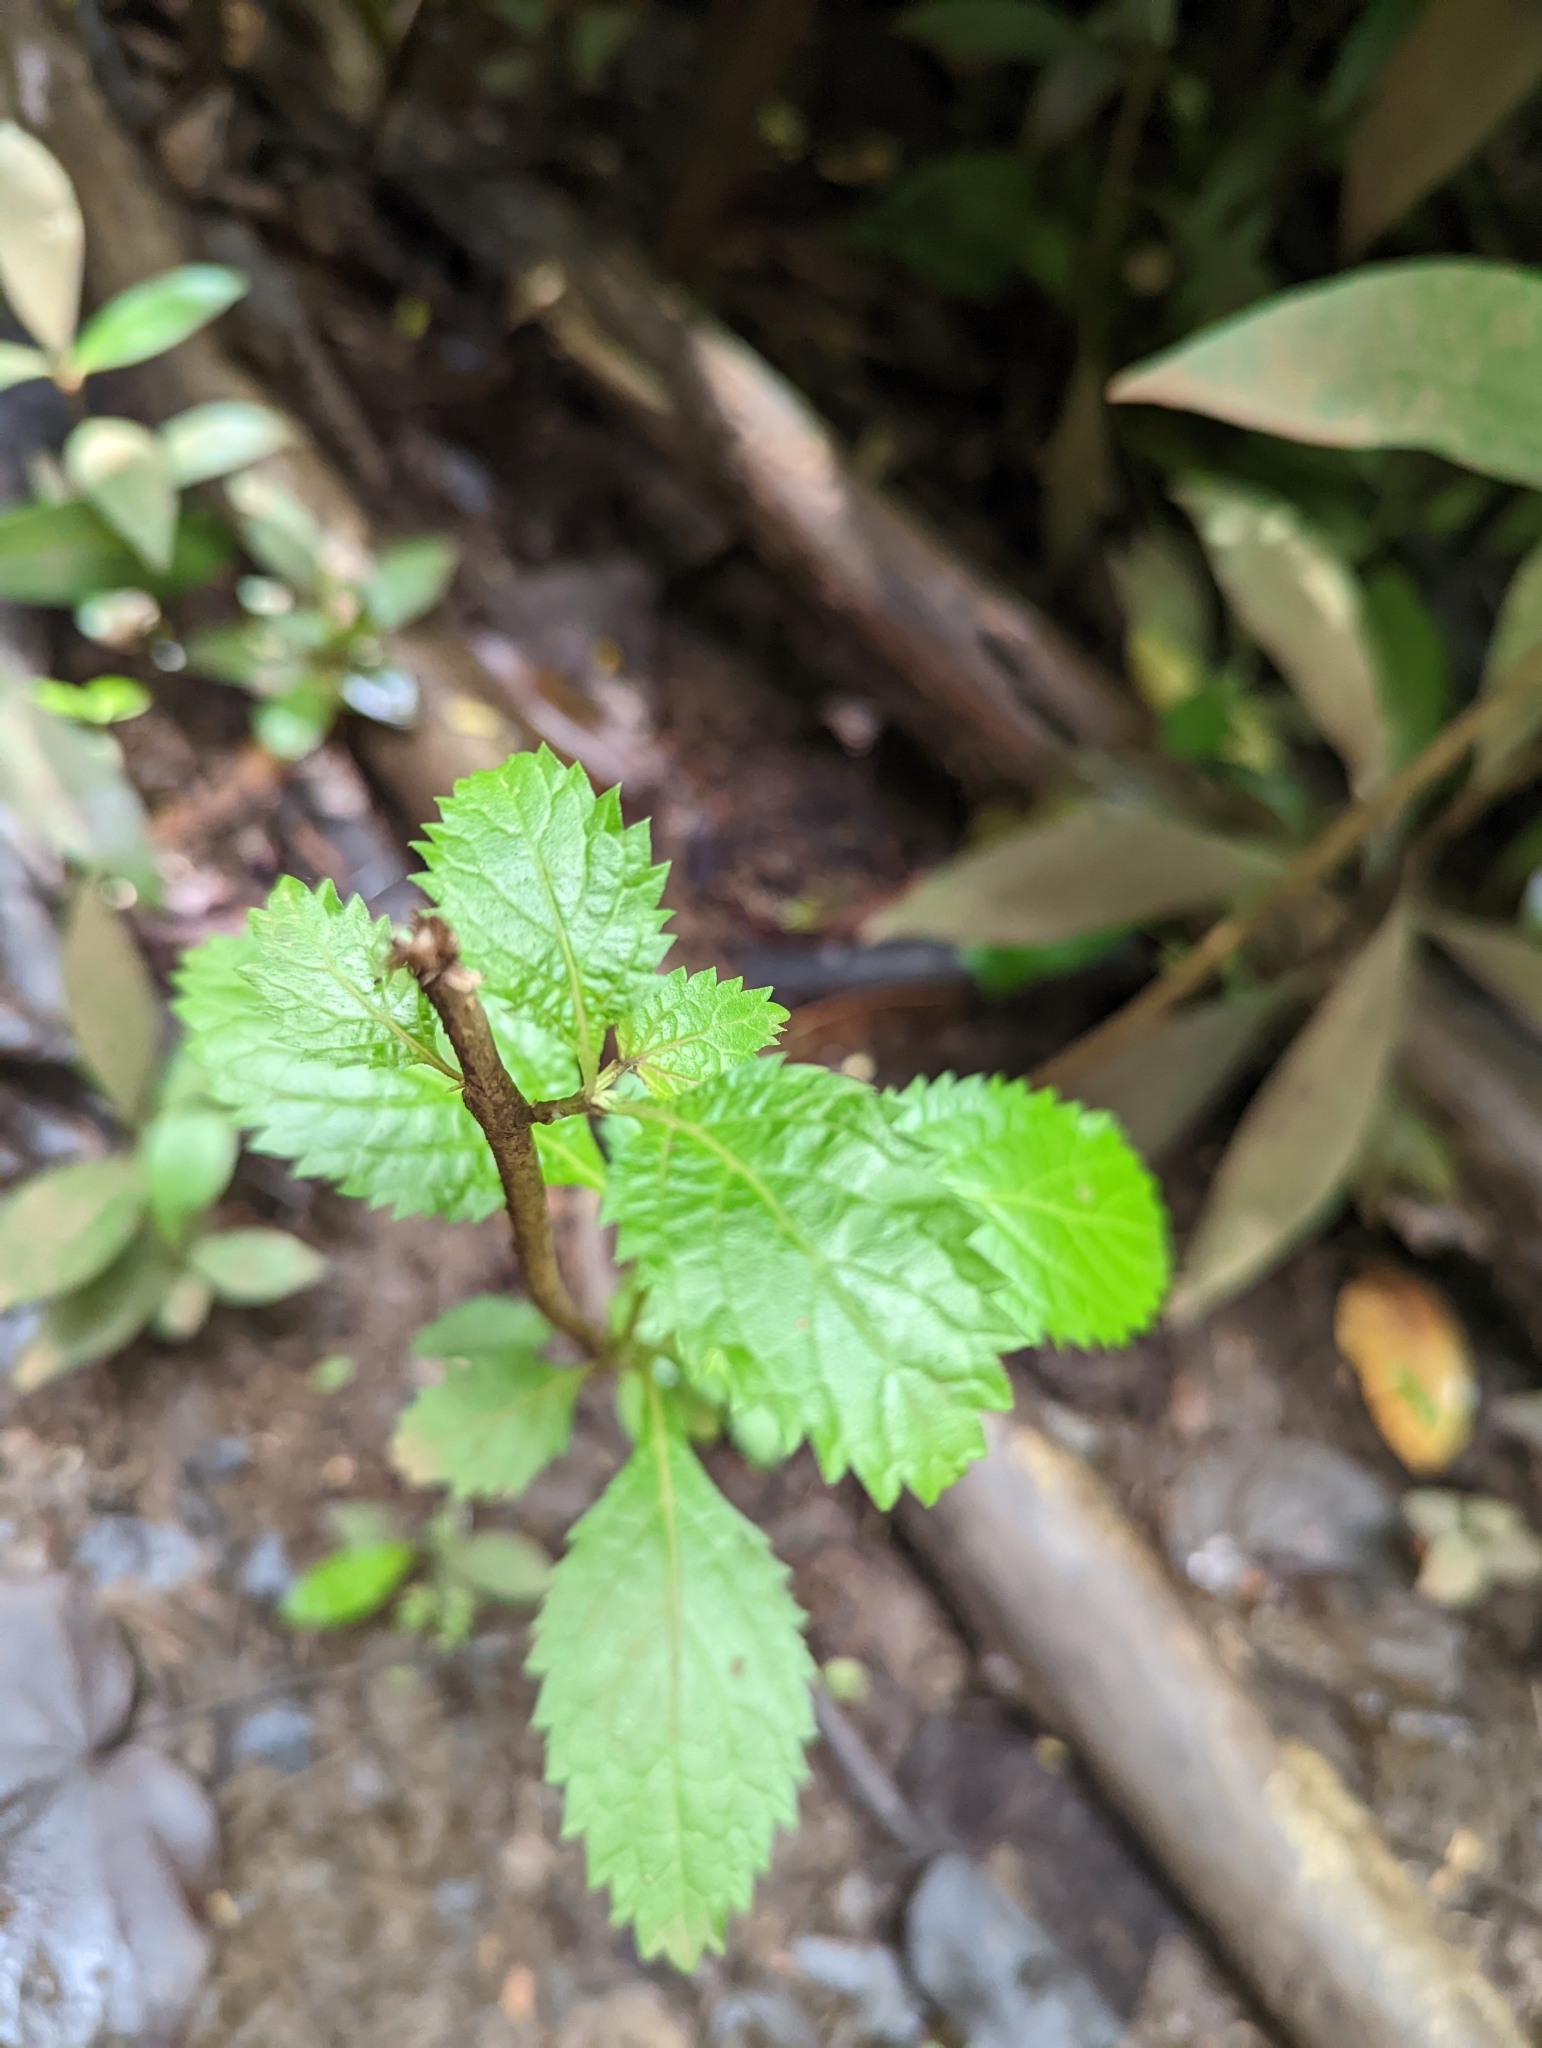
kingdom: Plantae
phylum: Tracheophyta
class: Magnoliopsida
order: Lamiales
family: Verbenaceae
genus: Stachytarpheta
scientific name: Stachytarpheta cayennensis
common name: Cayenne porterweed
